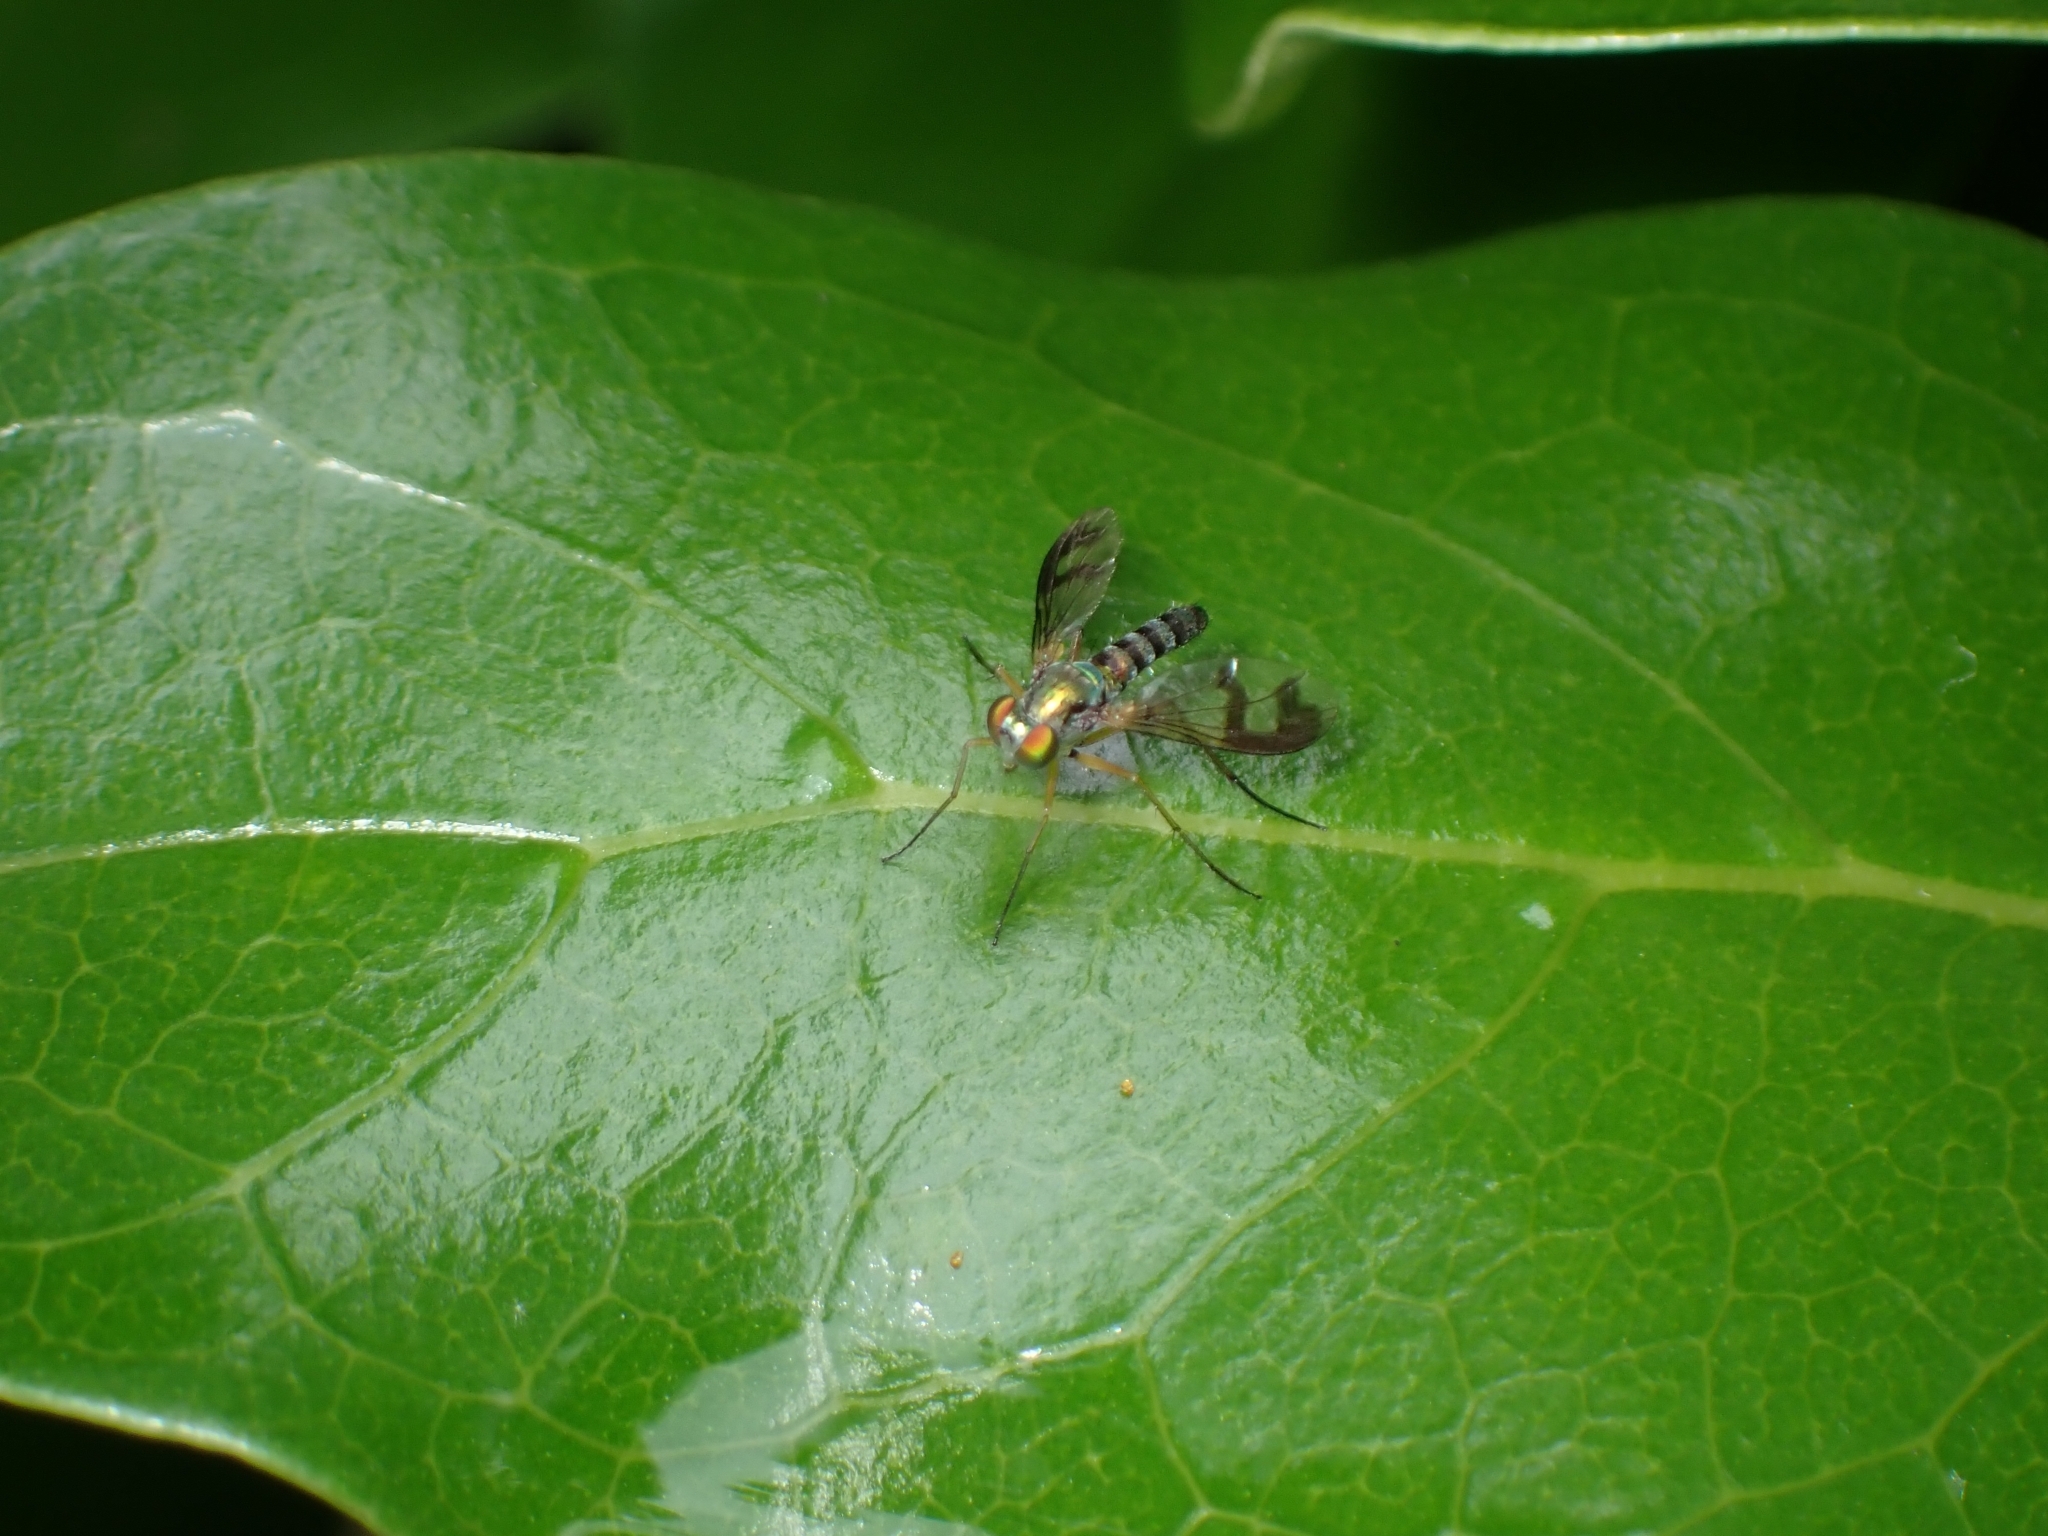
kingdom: Animalia
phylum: Arthropoda
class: Insecta
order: Diptera
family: Dolichopodidae
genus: Austrosciapus
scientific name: Austrosciapus proximus
